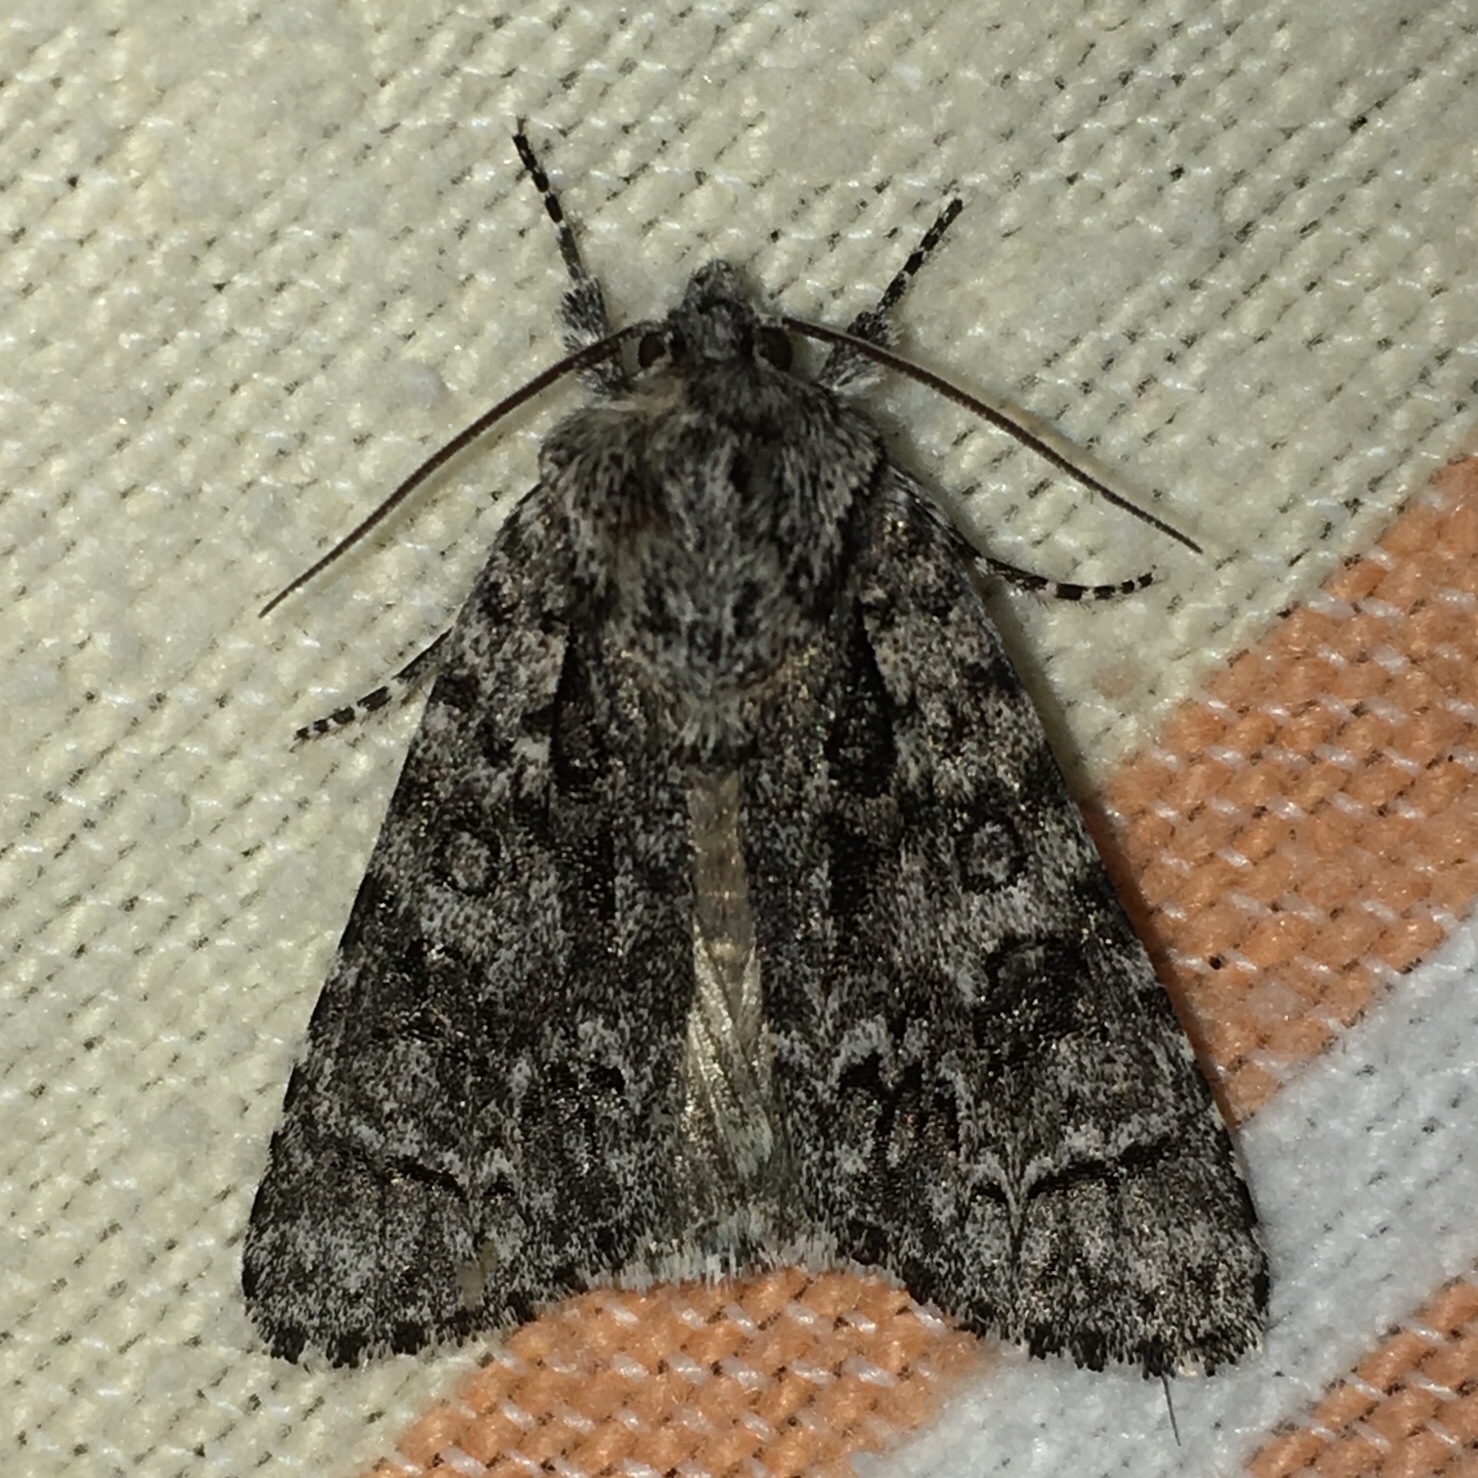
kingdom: Animalia
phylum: Arthropoda
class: Insecta
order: Lepidoptera
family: Noctuidae
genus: Acronicta
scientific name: Acronicta impressa
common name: Impressed dagger
